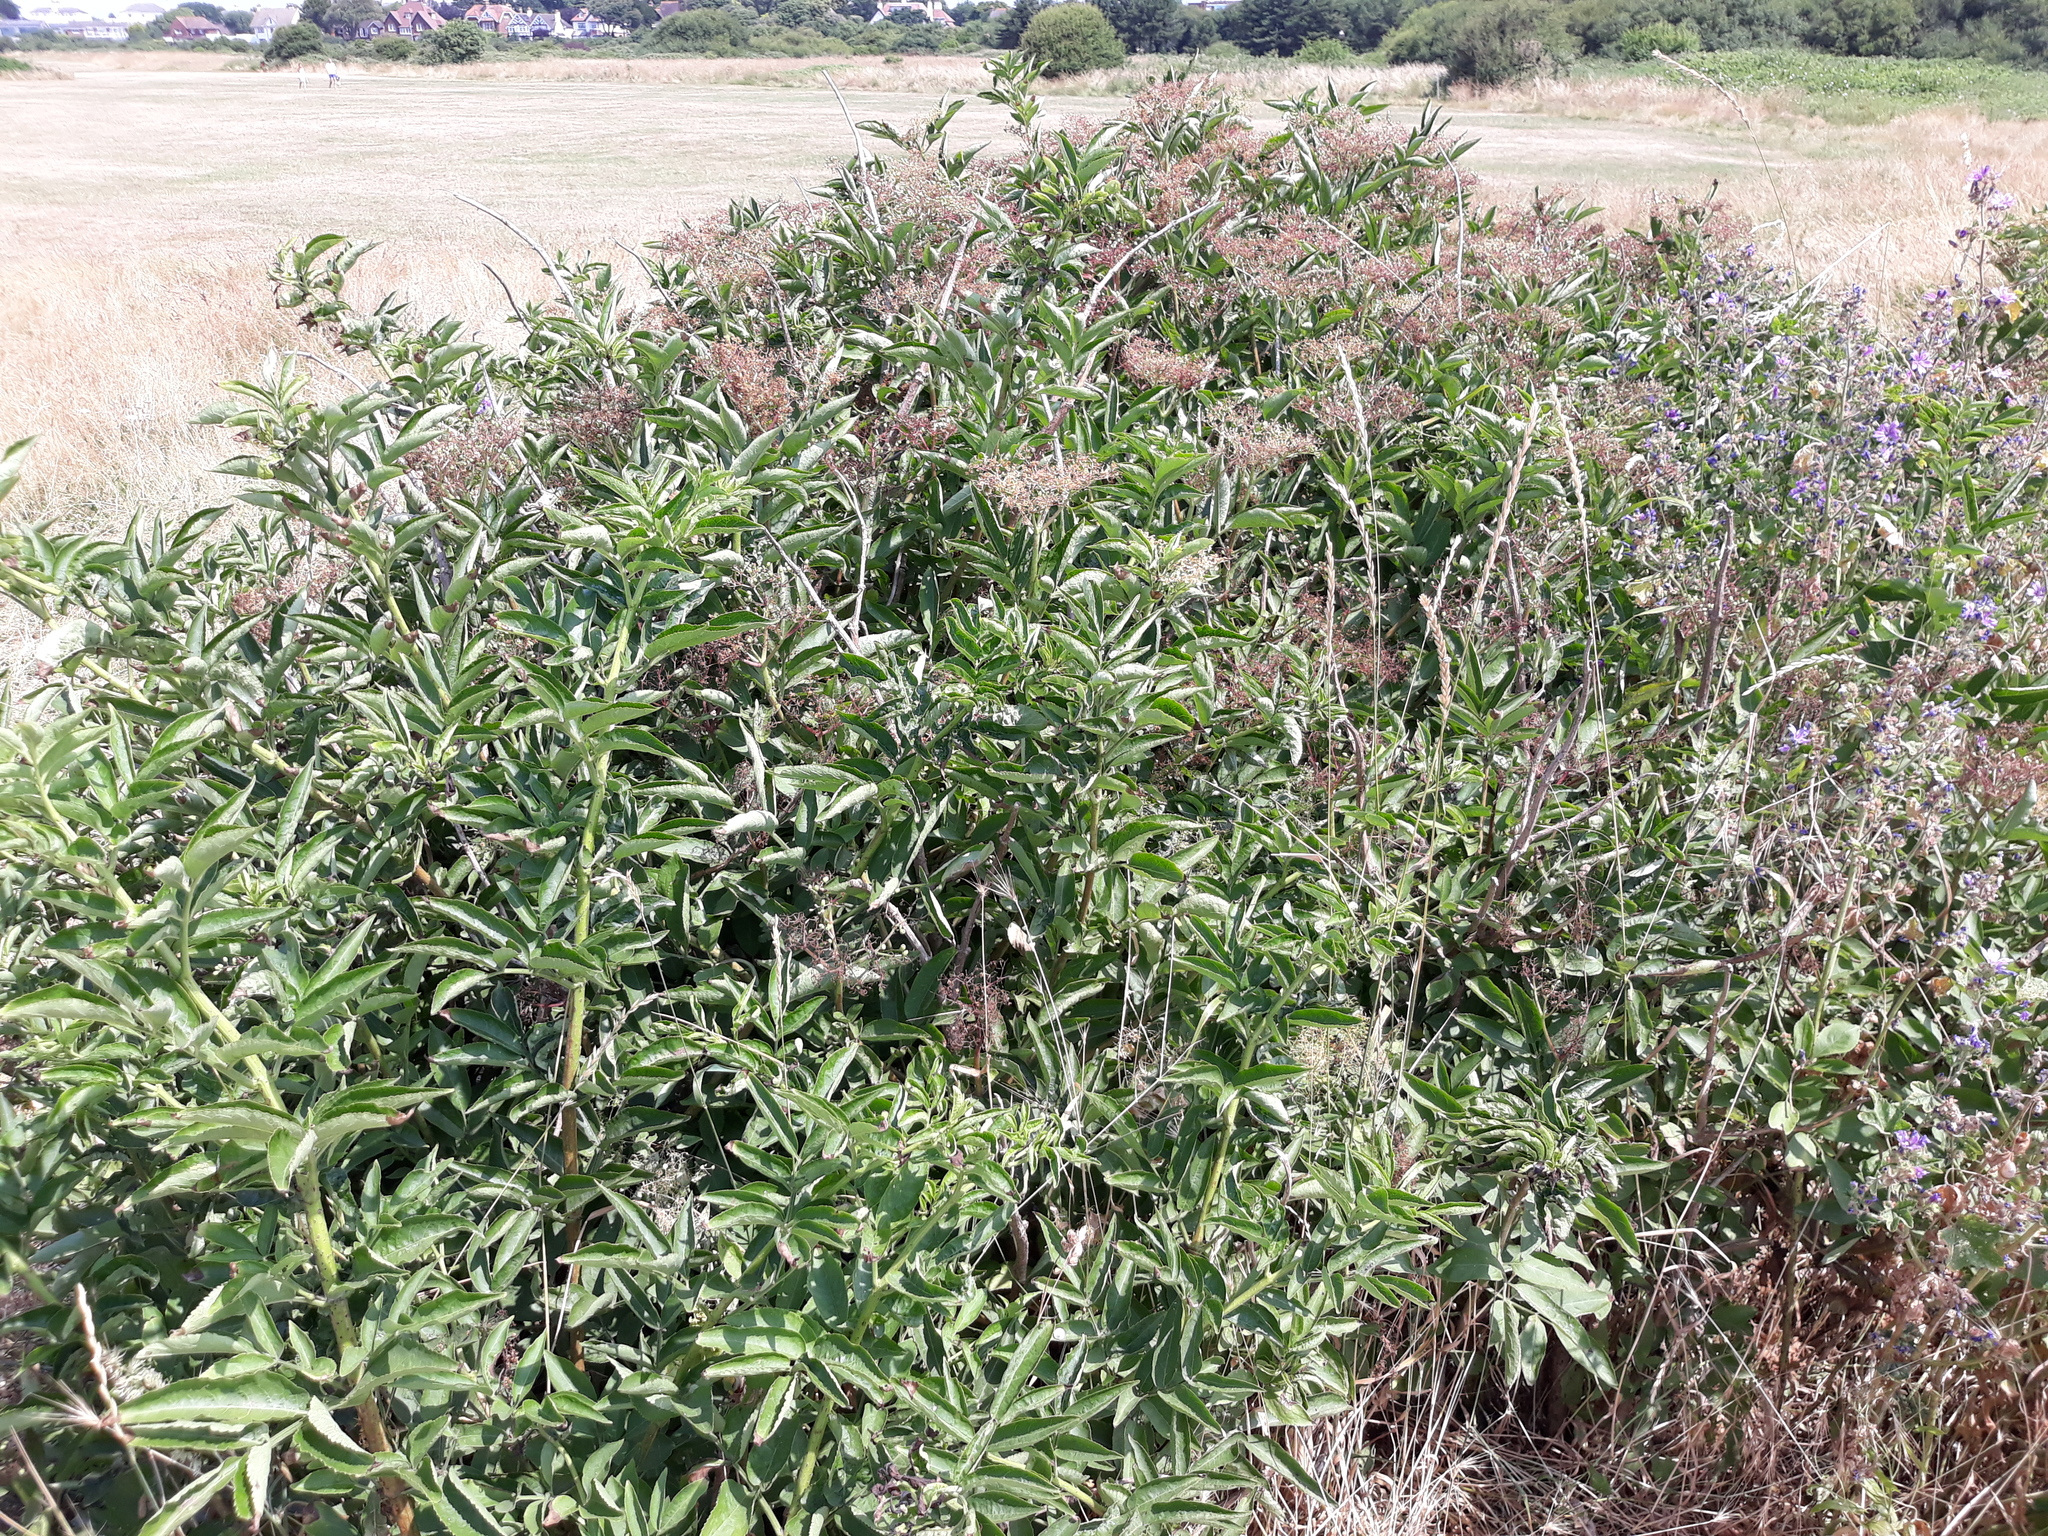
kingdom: Plantae
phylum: Tracheophyta
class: Magnoliopsida
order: Dipsacales
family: Viburnaceae
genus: Sambucus
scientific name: Sambucus nigra
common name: Elder
